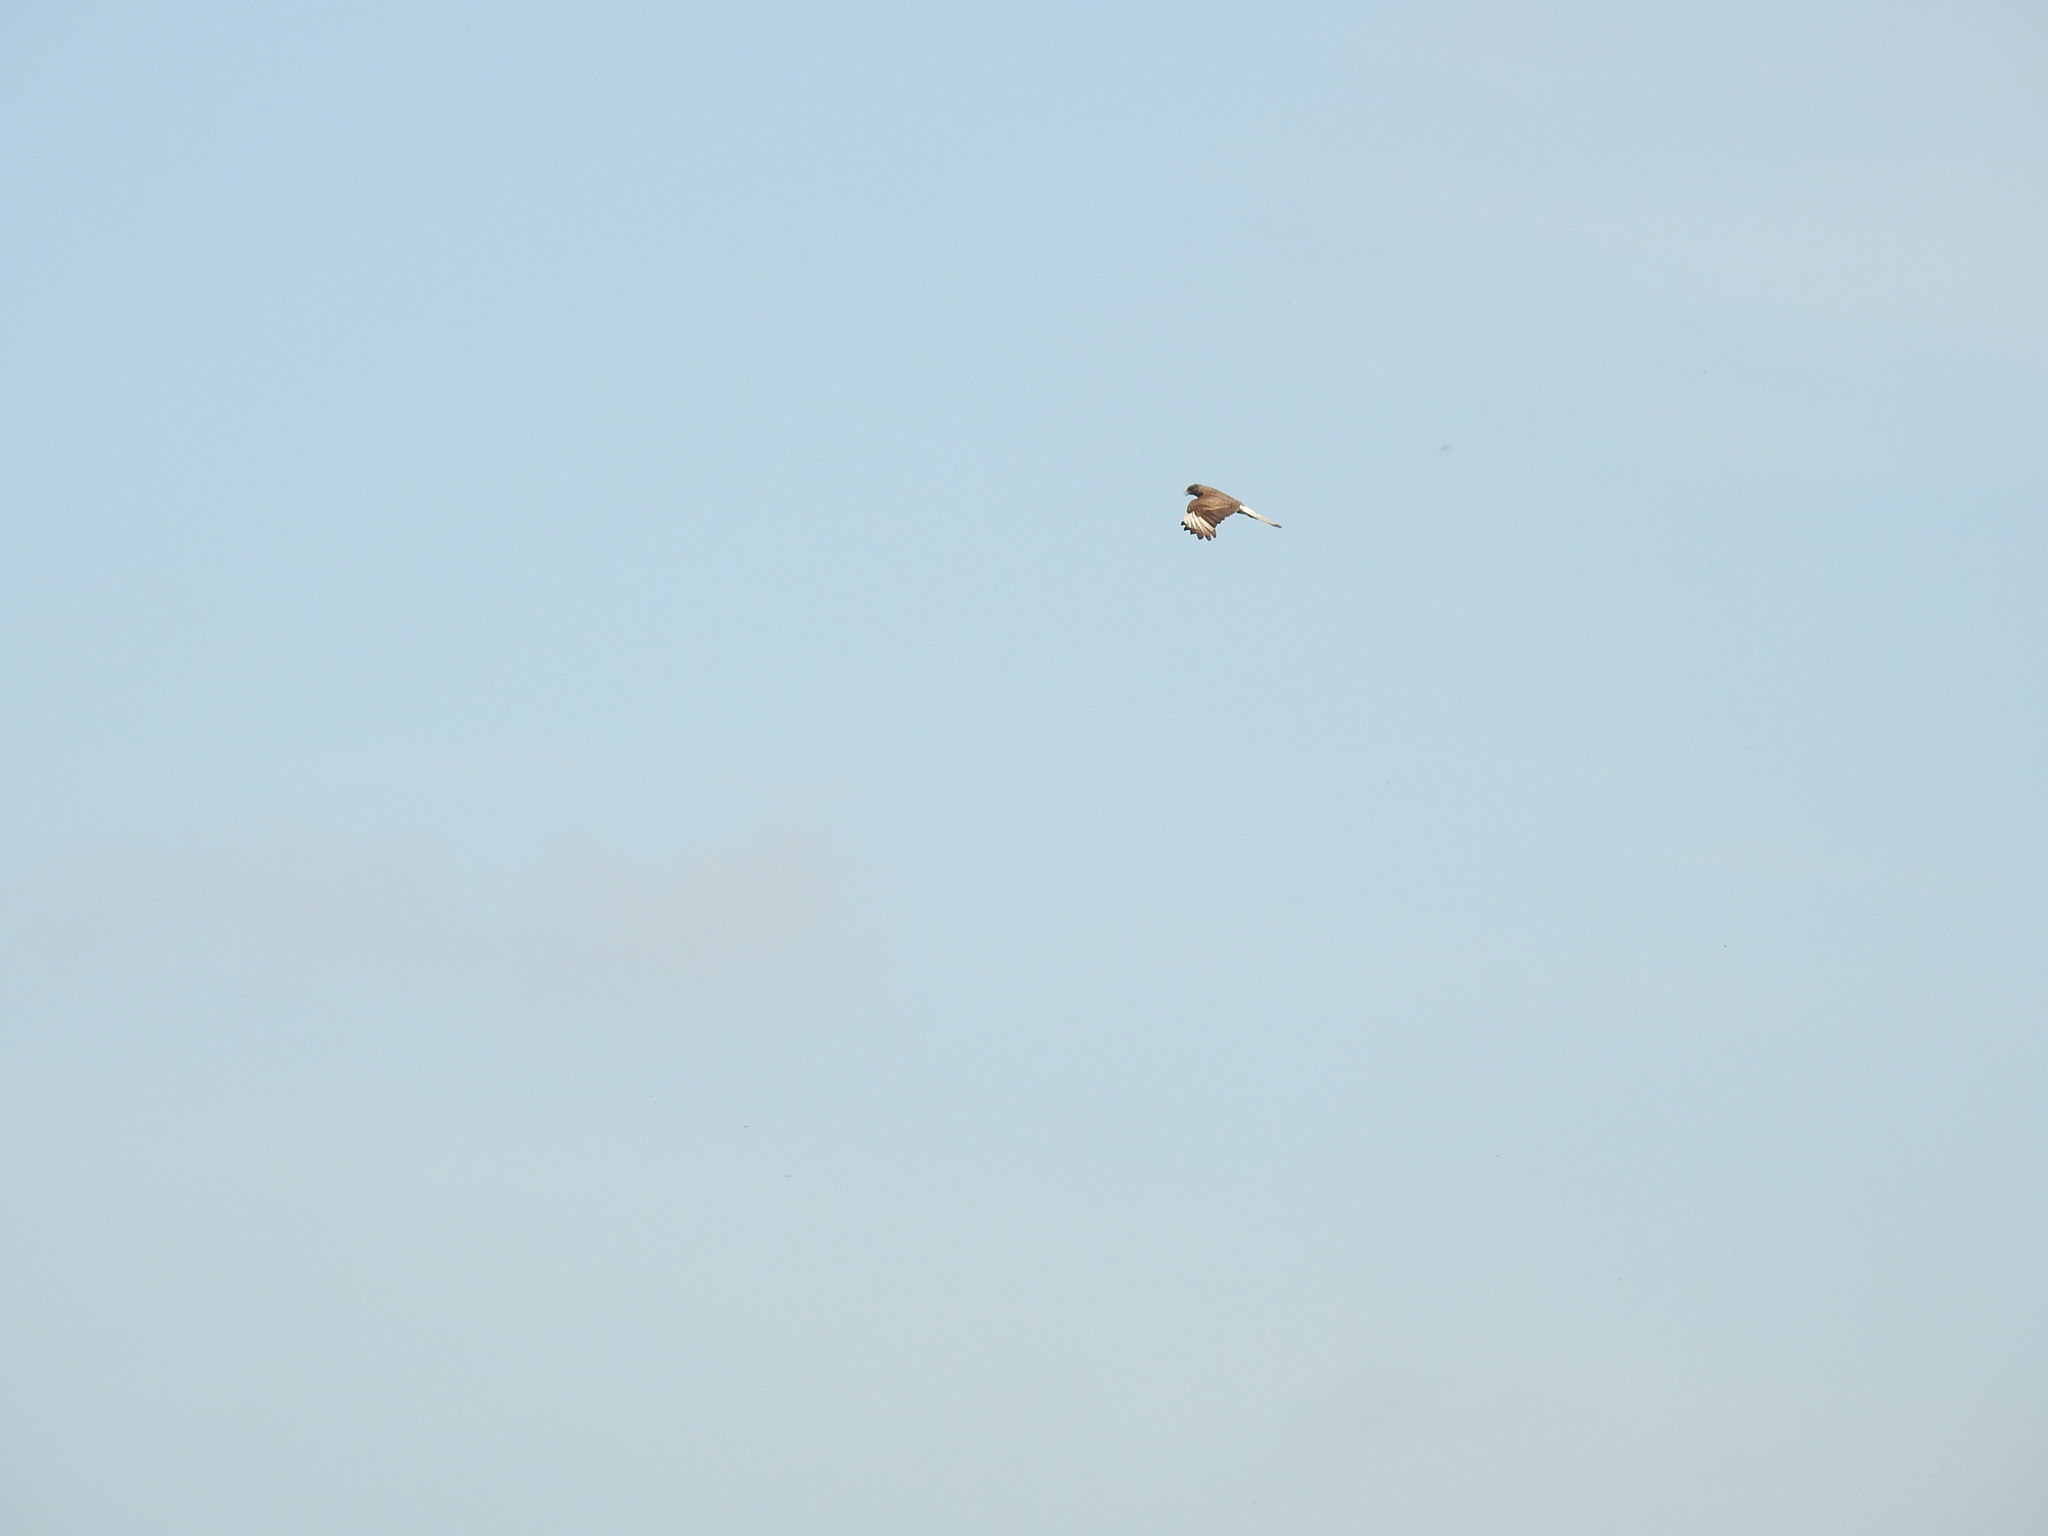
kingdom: Animalia
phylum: Chordata
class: Aves
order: Falconiformes
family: Falconidae
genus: Daptrius
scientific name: Daptrius
